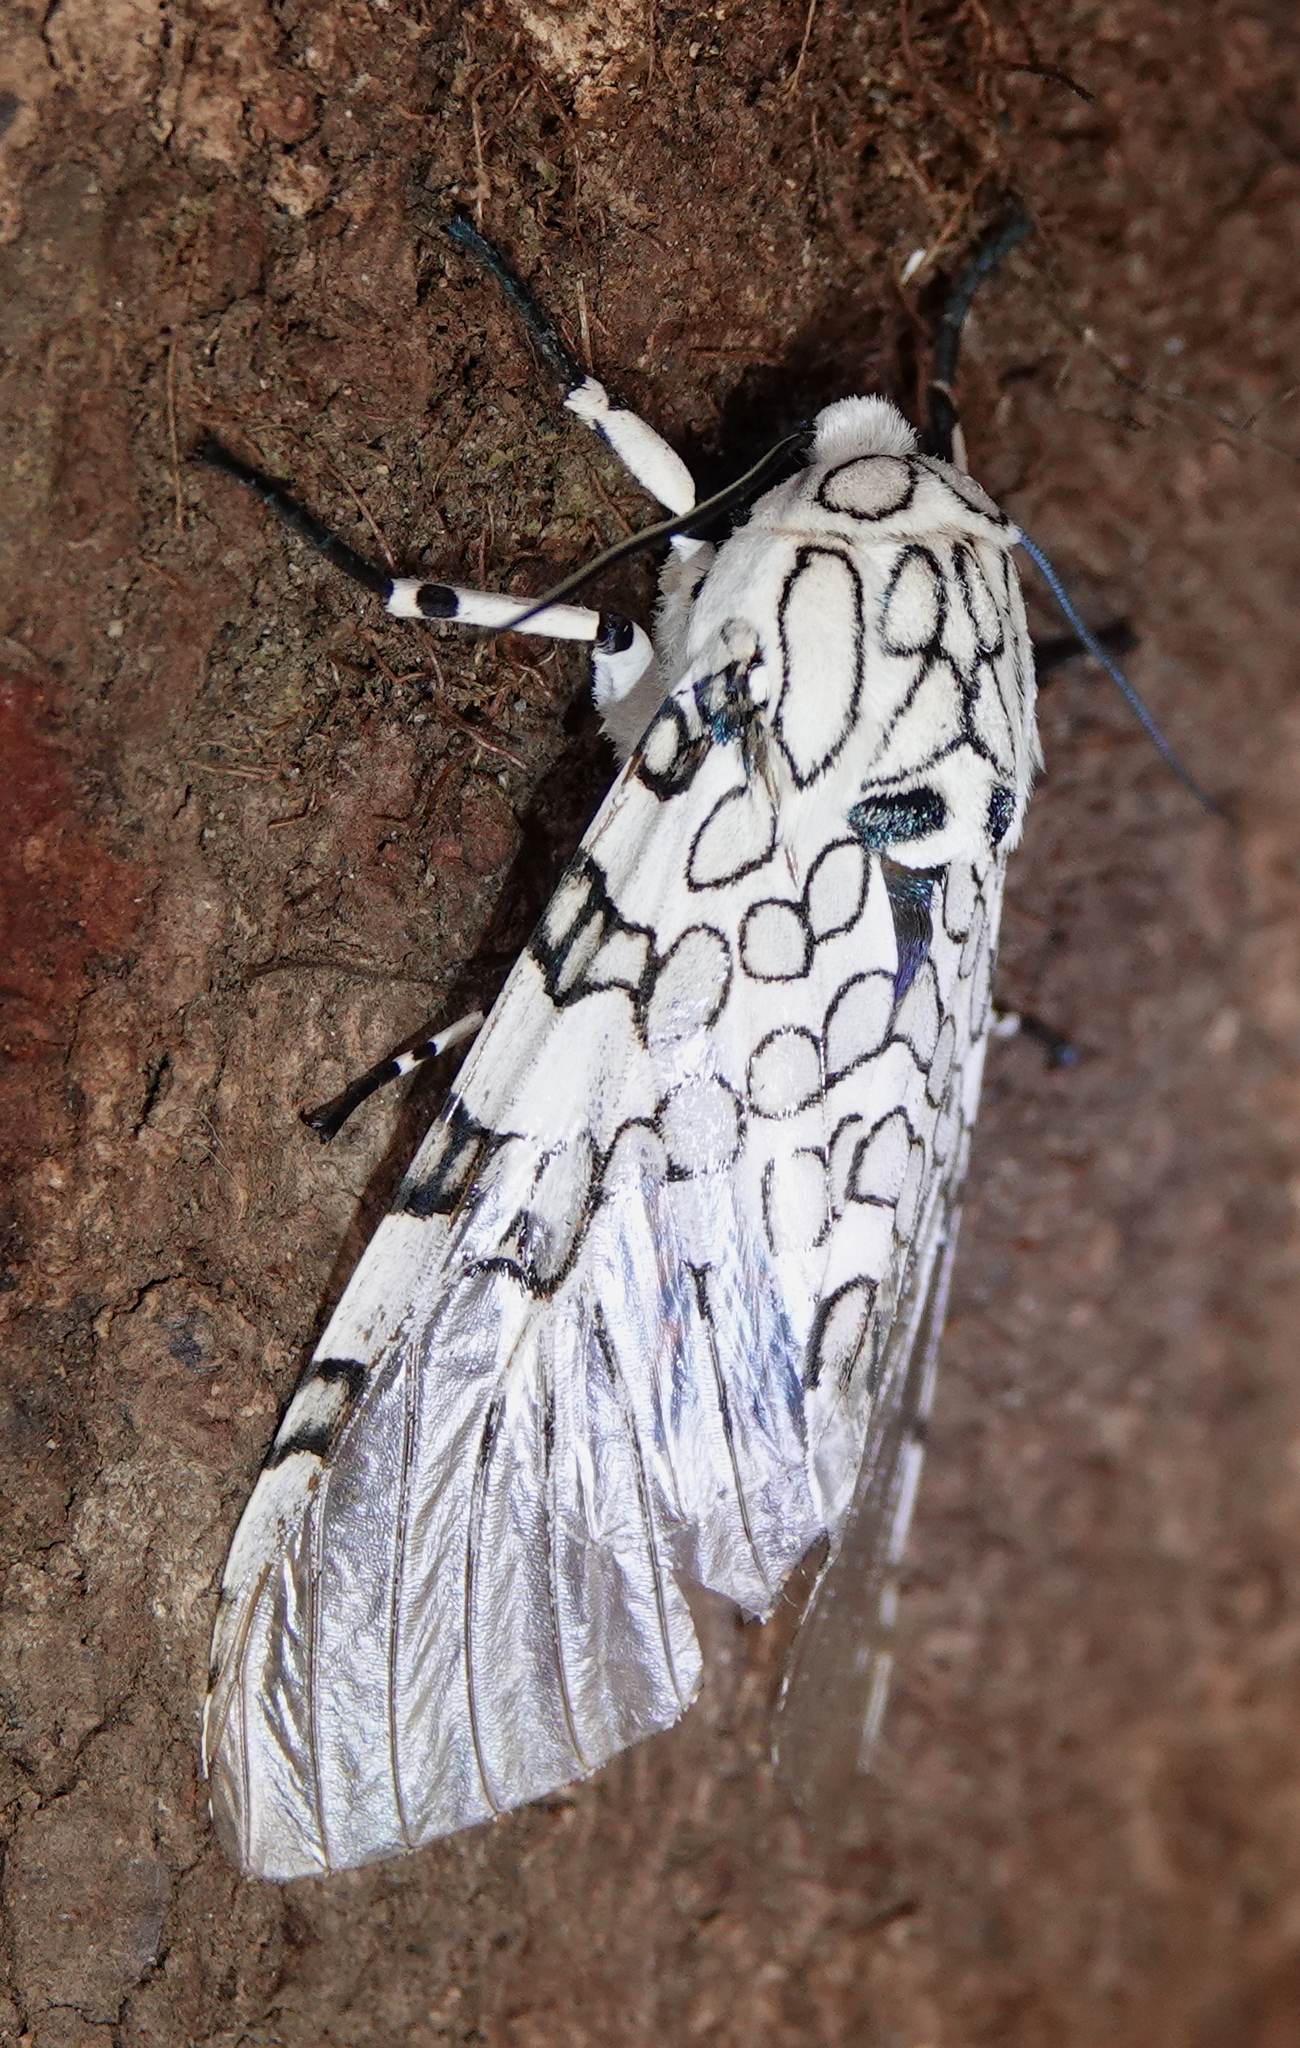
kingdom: Animalia
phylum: Arthropoda
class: Insecta
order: Lepidoptera
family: Erebidae
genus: Hypercompe
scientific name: Hypercompe caudata
